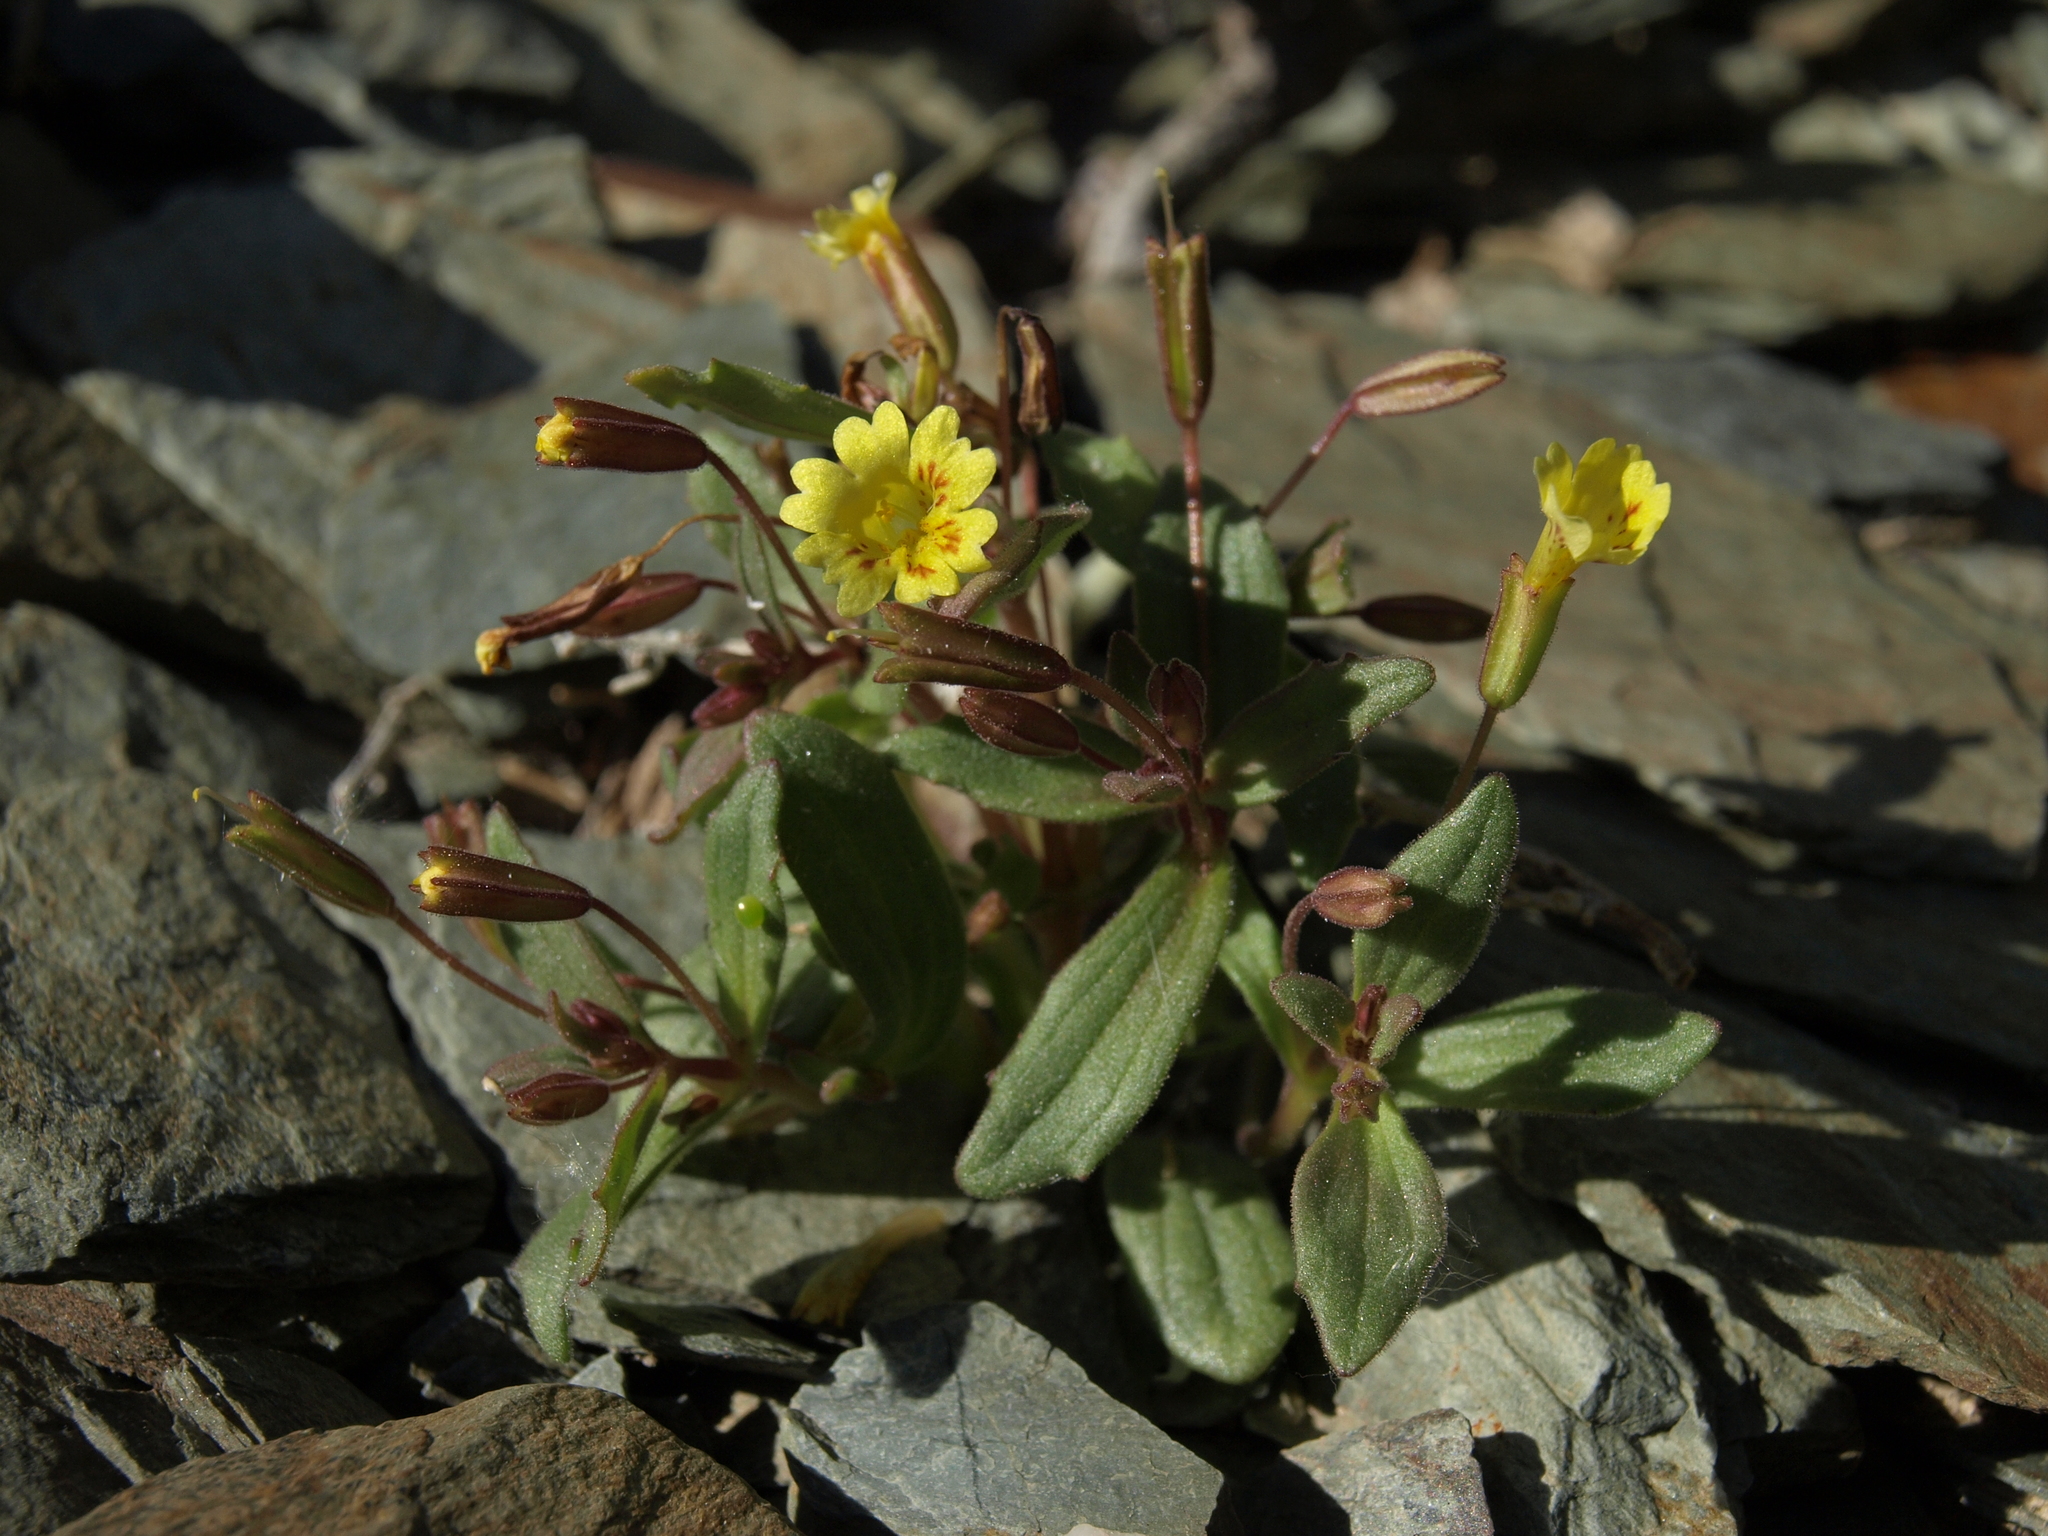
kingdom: Plantae
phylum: Tracheophyta
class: Magnoliopsida
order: Lamiales
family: Phrymaceae
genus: Erythranthe
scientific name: Erythranthe calcicola
